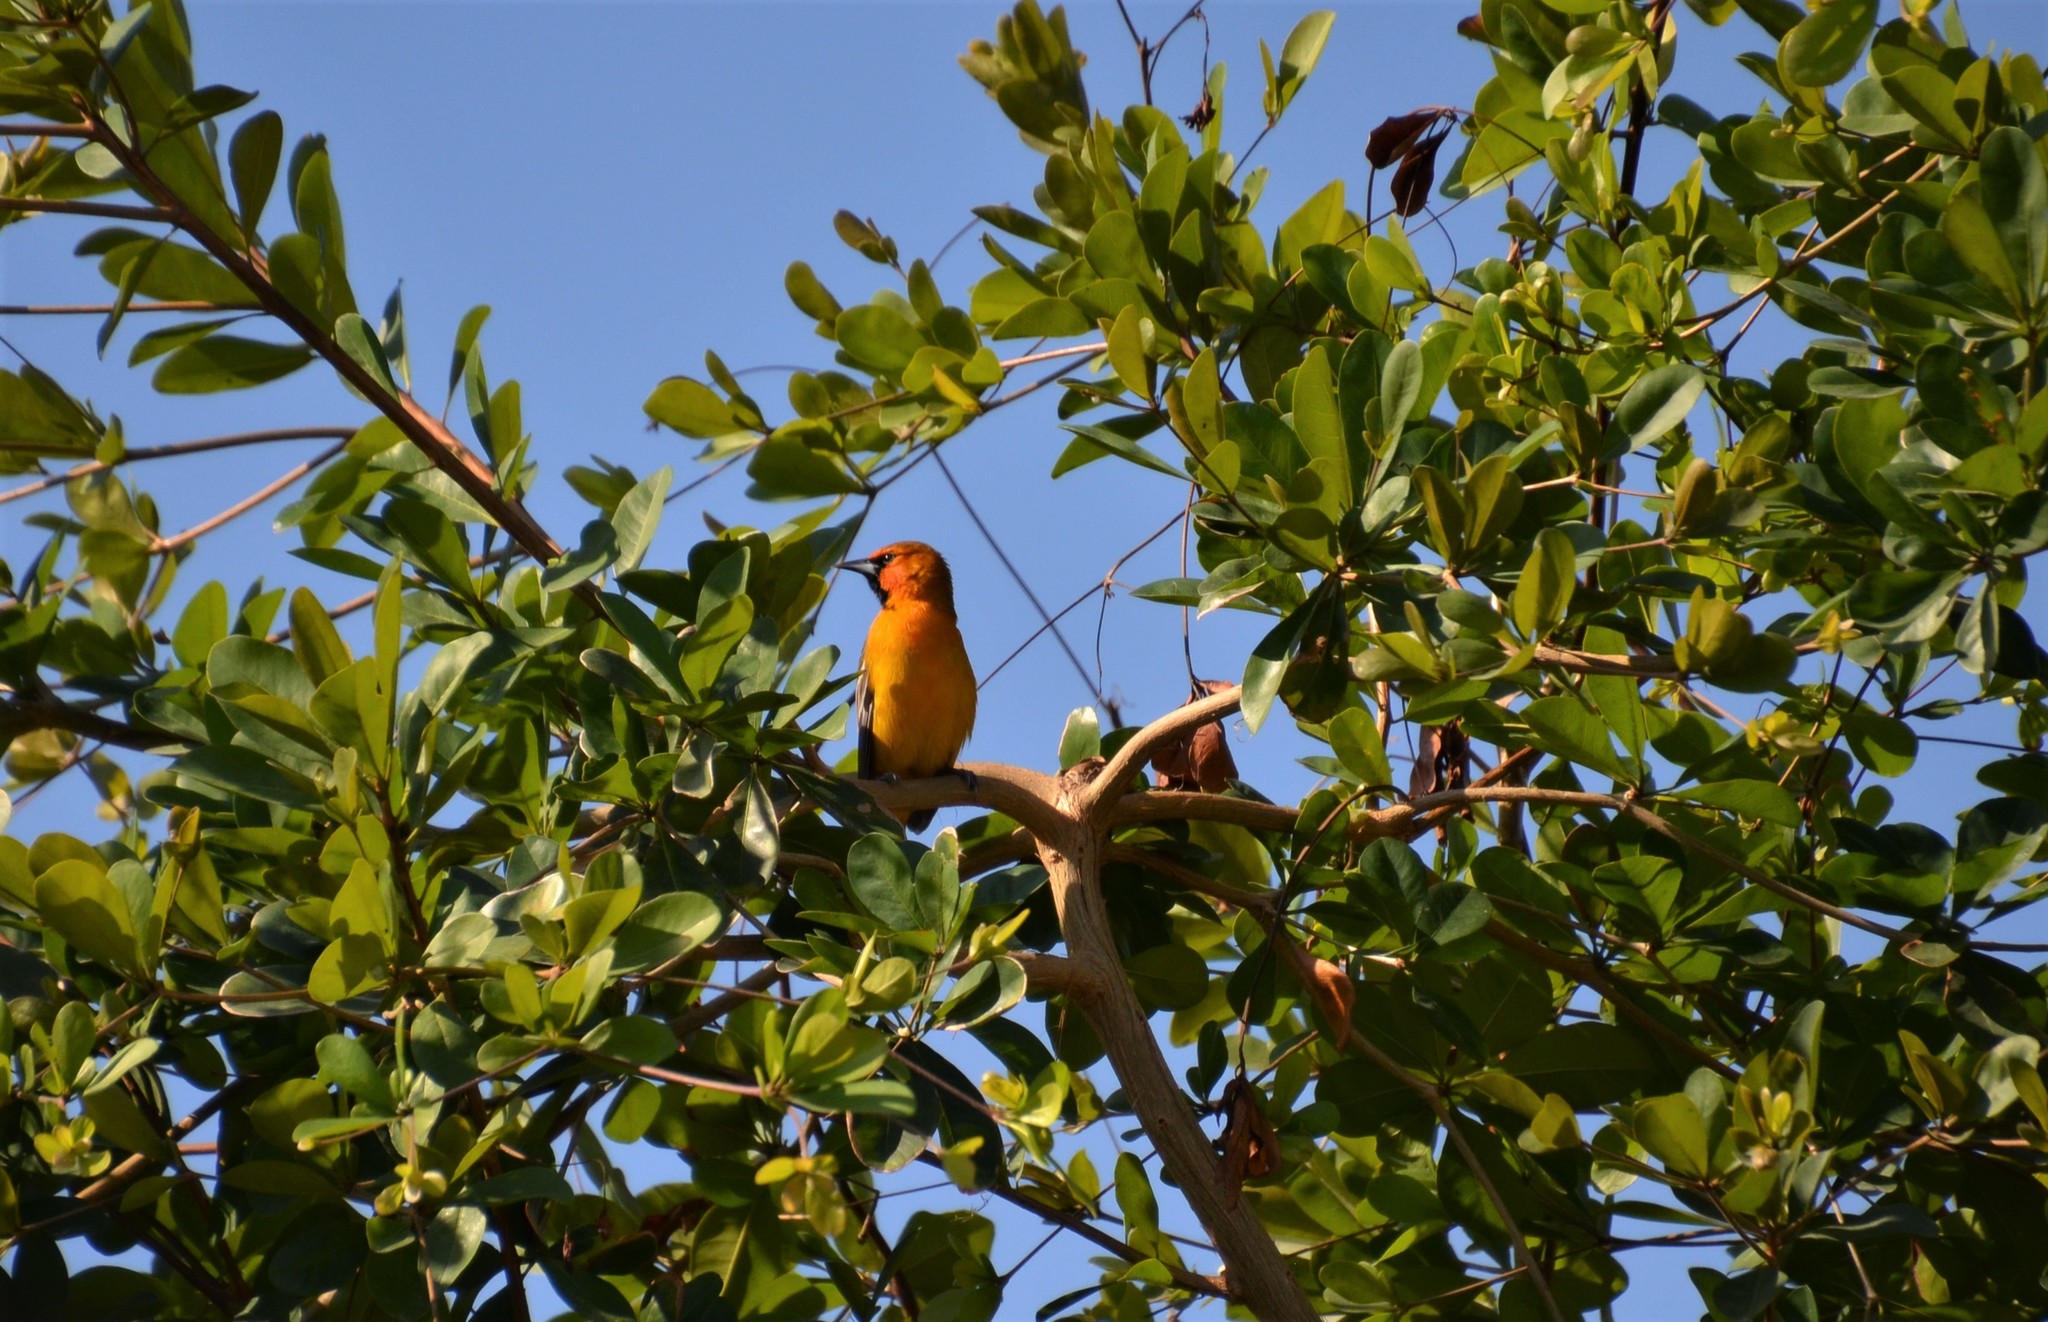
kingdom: Animalia
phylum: Chordata
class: Aves
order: Passeriformes
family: Icteridae
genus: Icterus
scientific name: Icterus pustulatus
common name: Streak-backed oriole
